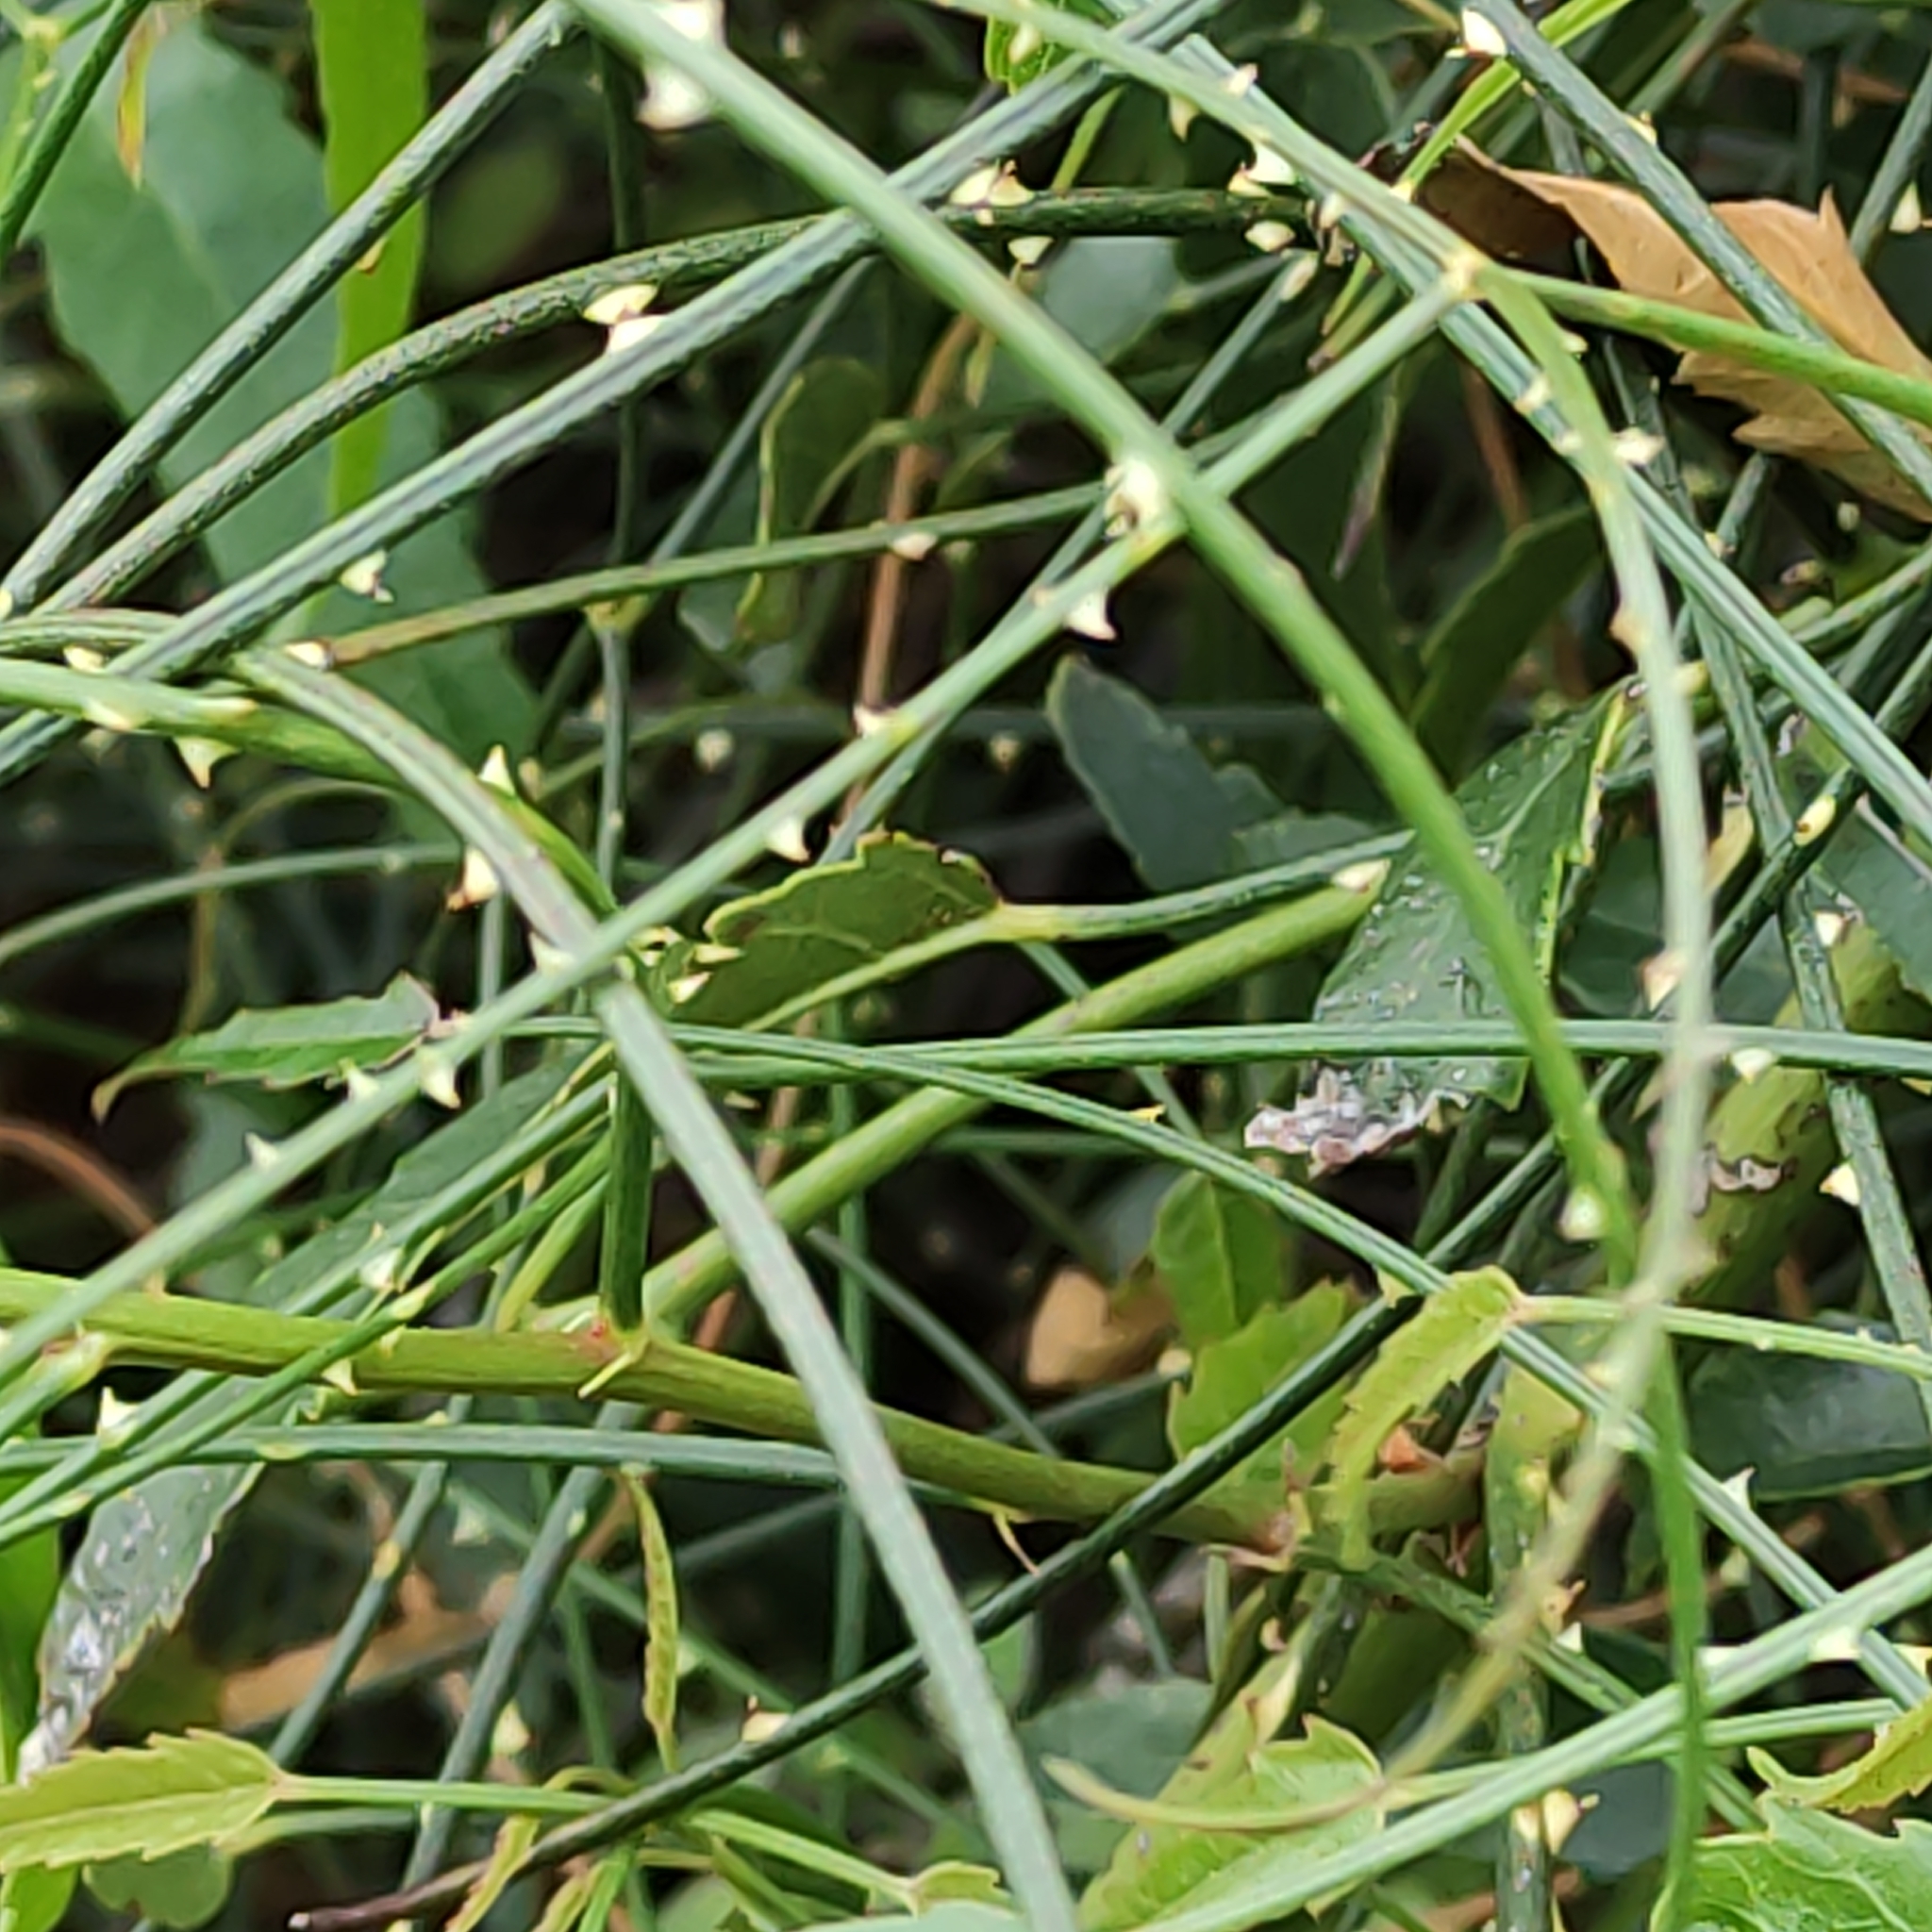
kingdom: Plantae
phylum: Tracheophyta
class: Magnoliopsida
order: Rosales
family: Rosaceae
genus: Rubus
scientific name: Rubus squarrosus
